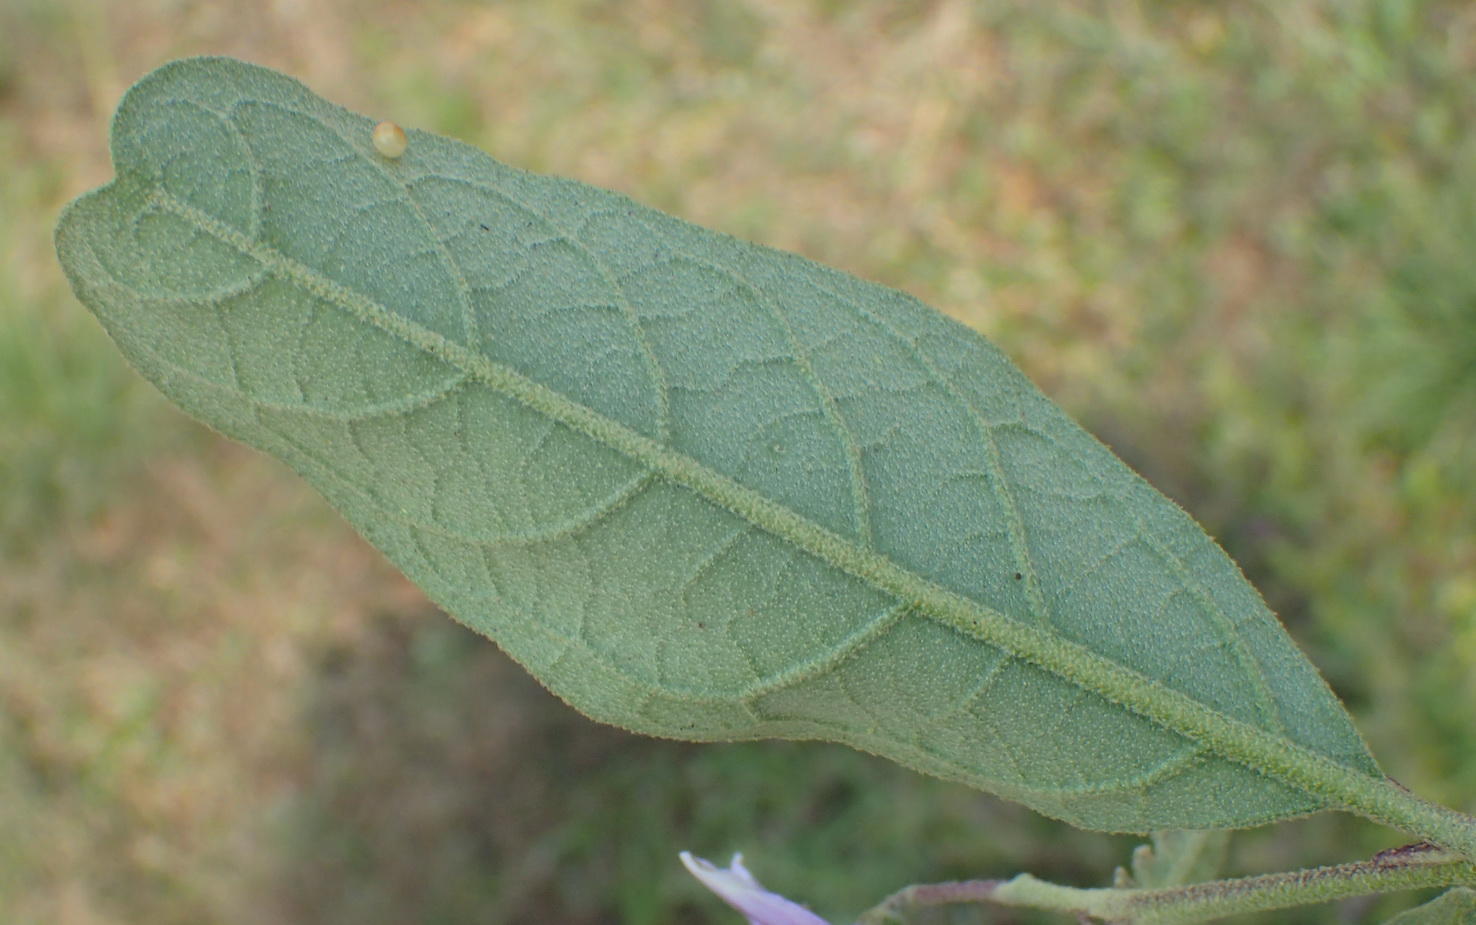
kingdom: Plantae
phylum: Tracheophyta
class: Magnoliopsida
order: Solanales
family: Solanaceae
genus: Solanum
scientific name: Solanum campylacanthum
